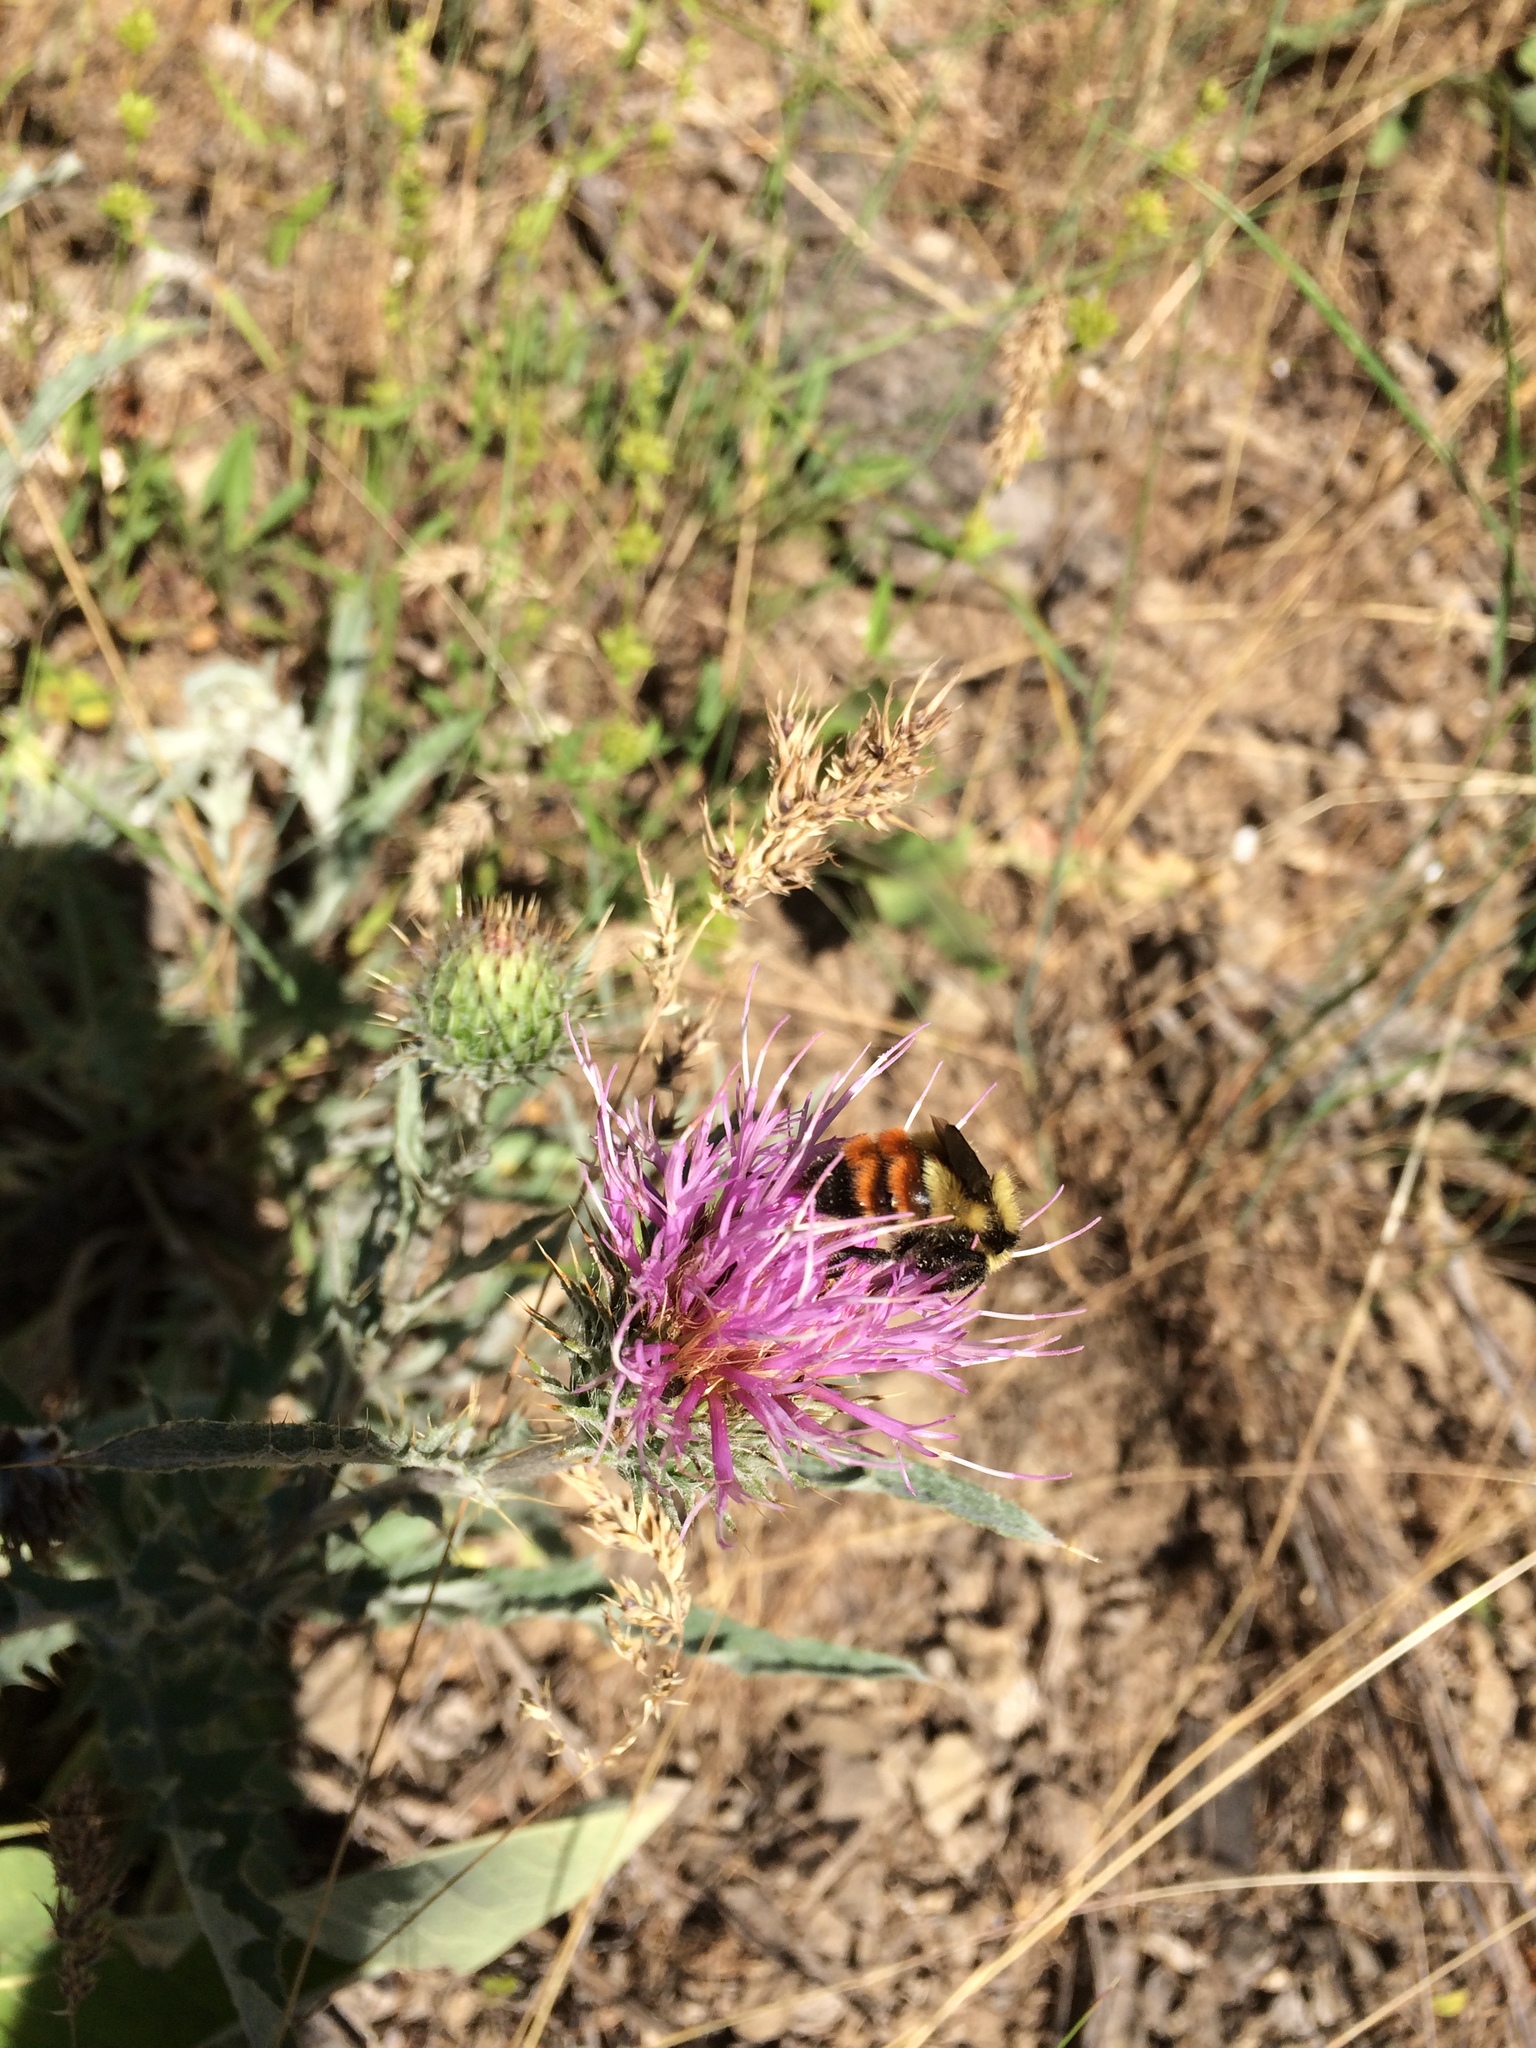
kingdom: Animalia
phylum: Arthropoda
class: Insecta
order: Hymenoptera
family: Apidae
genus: Bombus
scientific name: Bombus centralis
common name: Central bumble bee
